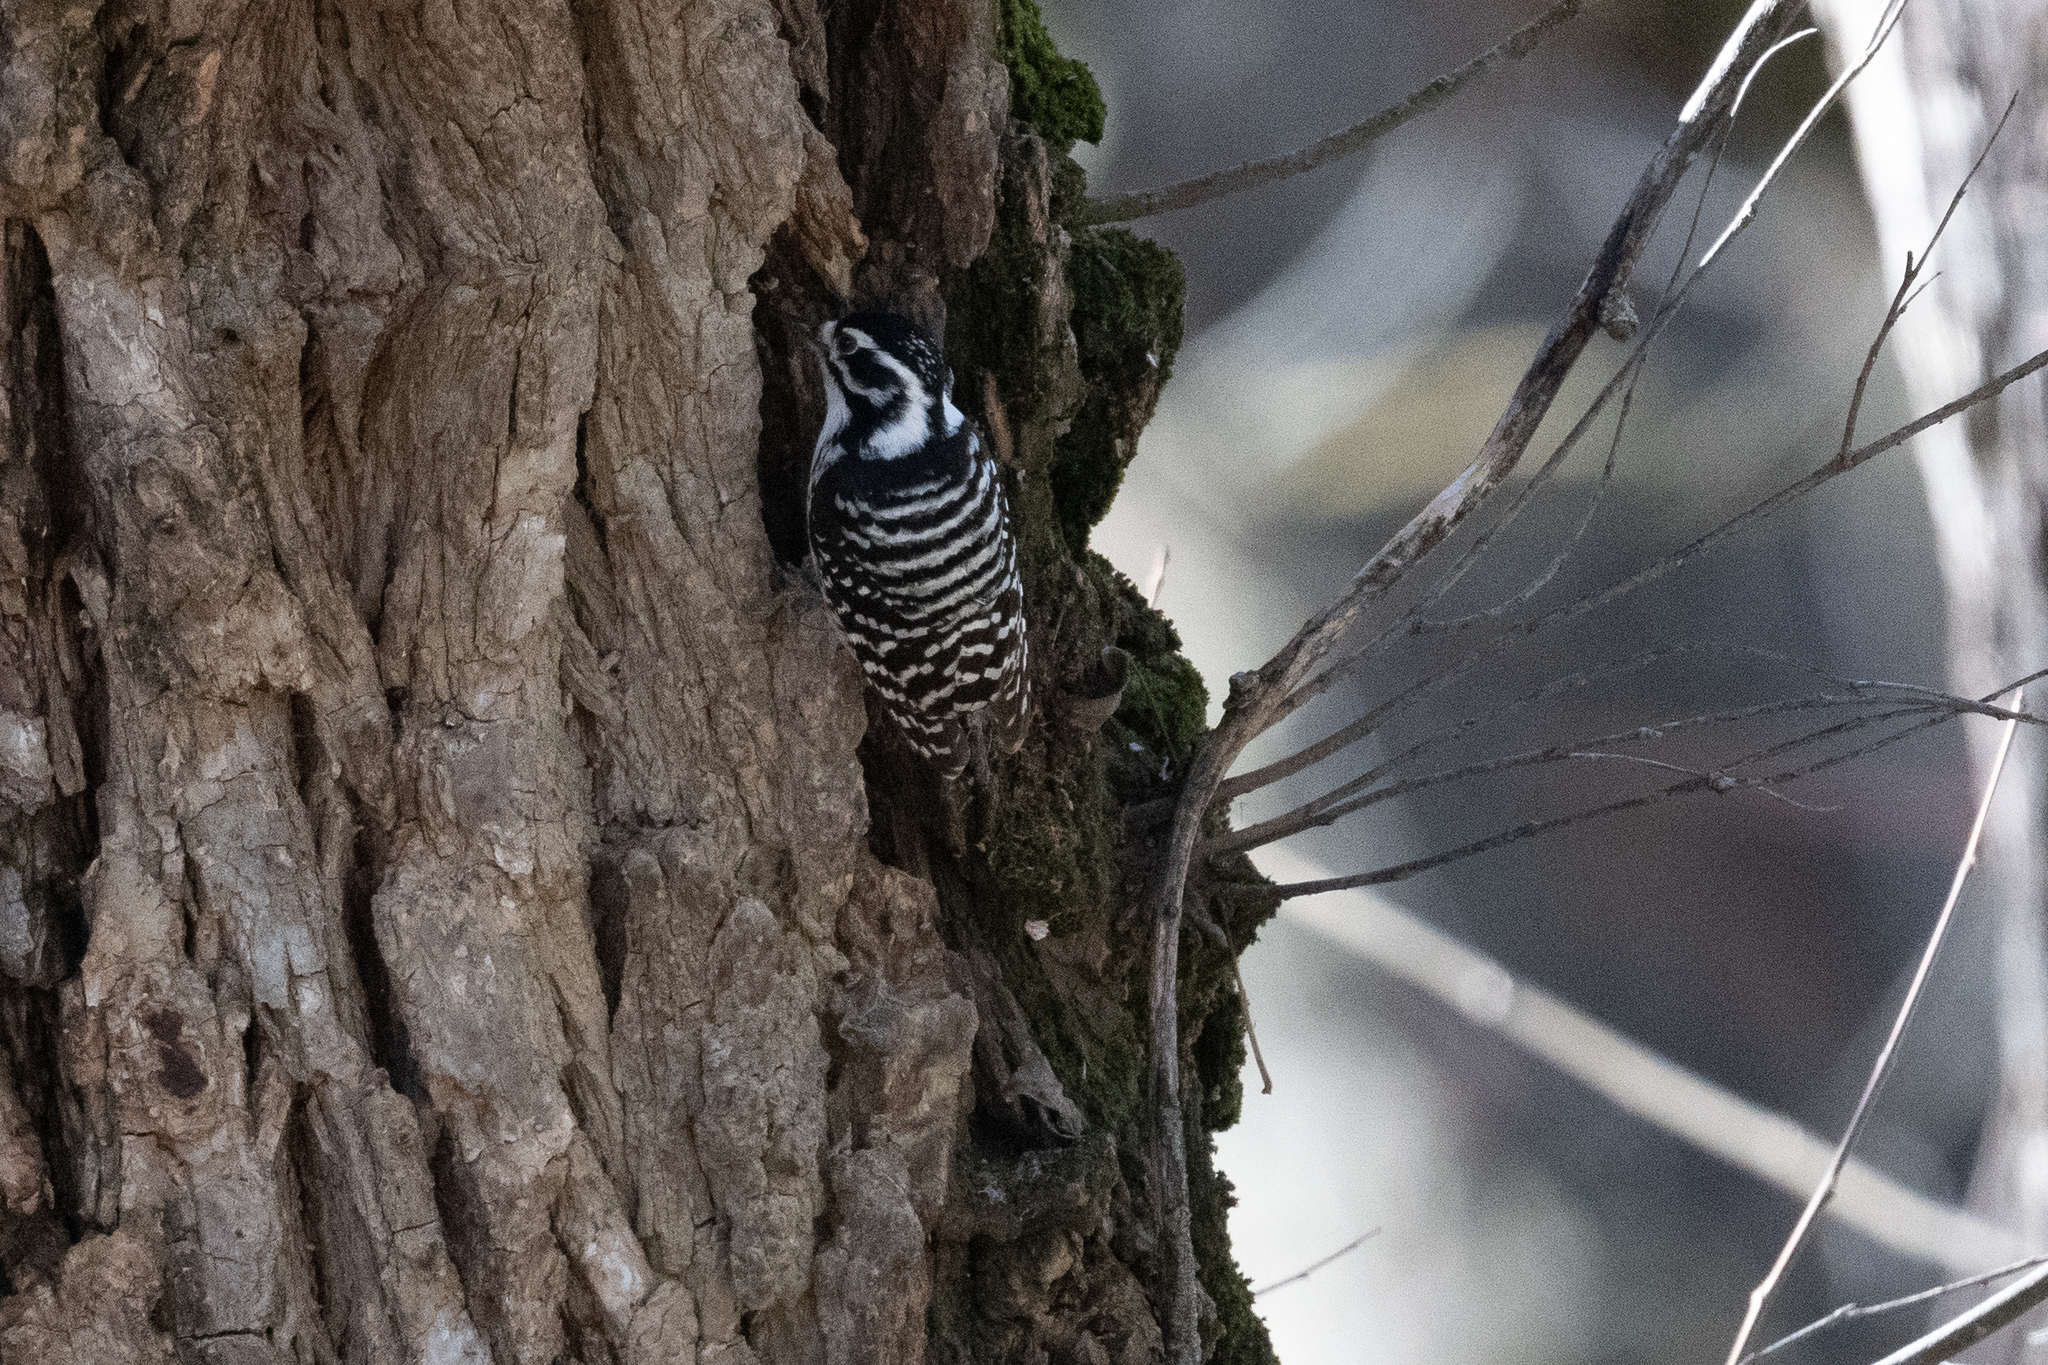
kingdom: Animalia
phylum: Chordata
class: Aves
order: Piciformes
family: Picidae
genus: Dryobates
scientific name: Dryobates nuttallii
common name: Nuttall's woodpecker
